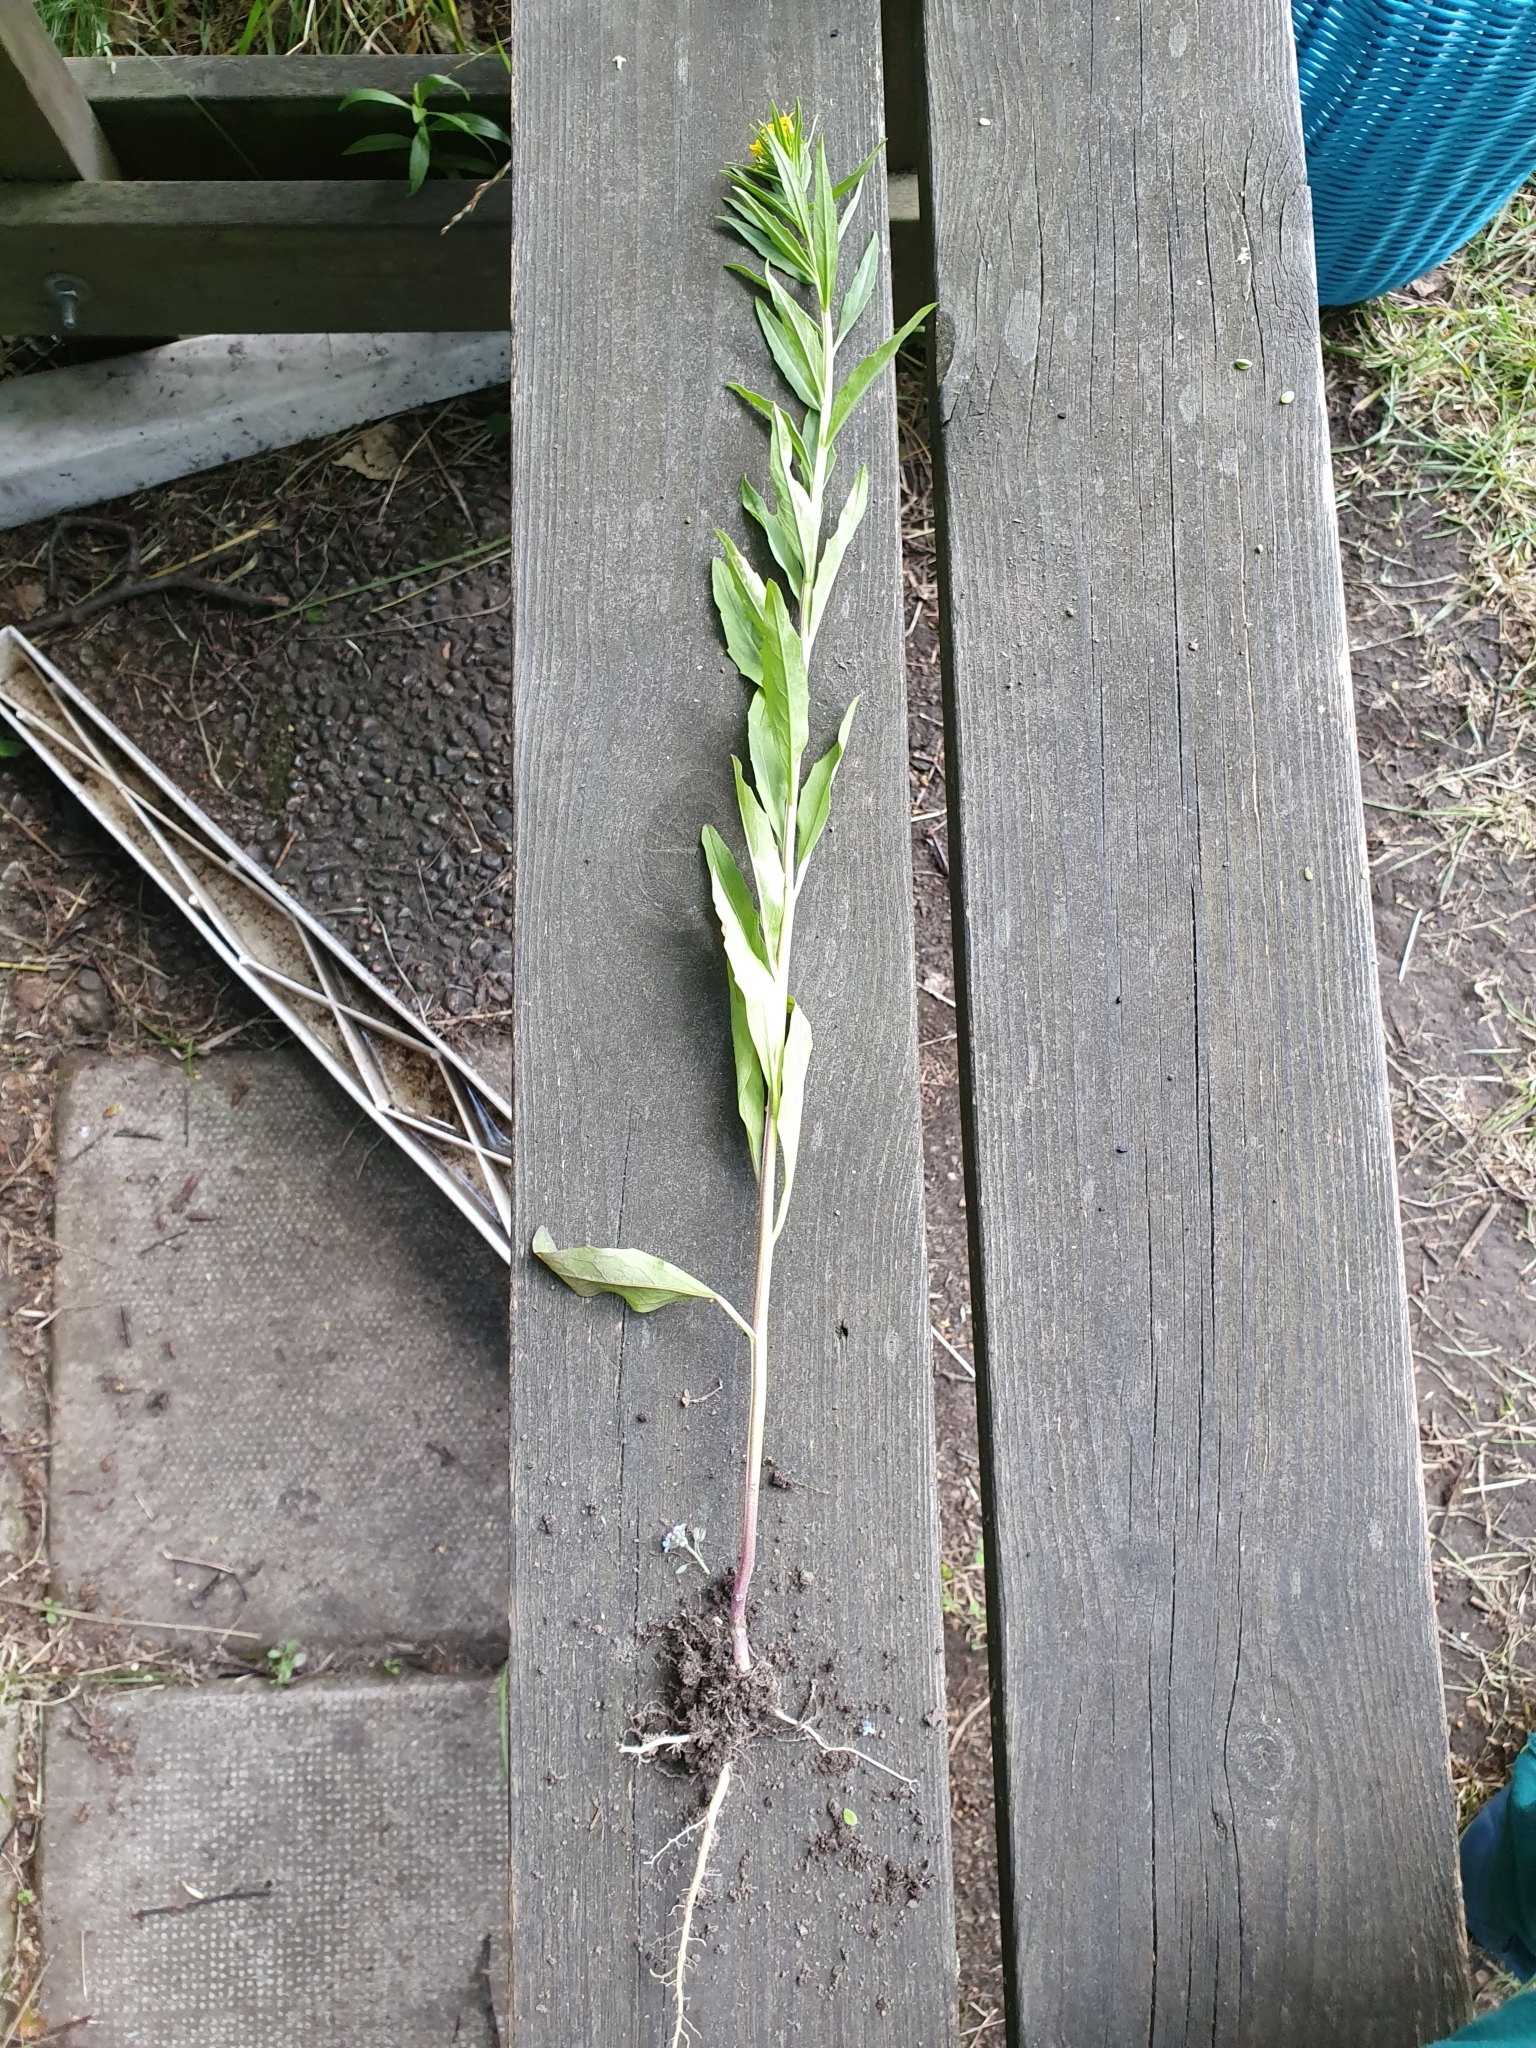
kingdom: Plantae
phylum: Tracheophyta
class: Magnoliopsida
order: Brassicales
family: Brassicaceae
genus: Erysimum
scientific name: Erysimum cheiranthoides
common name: Treacle mustard
